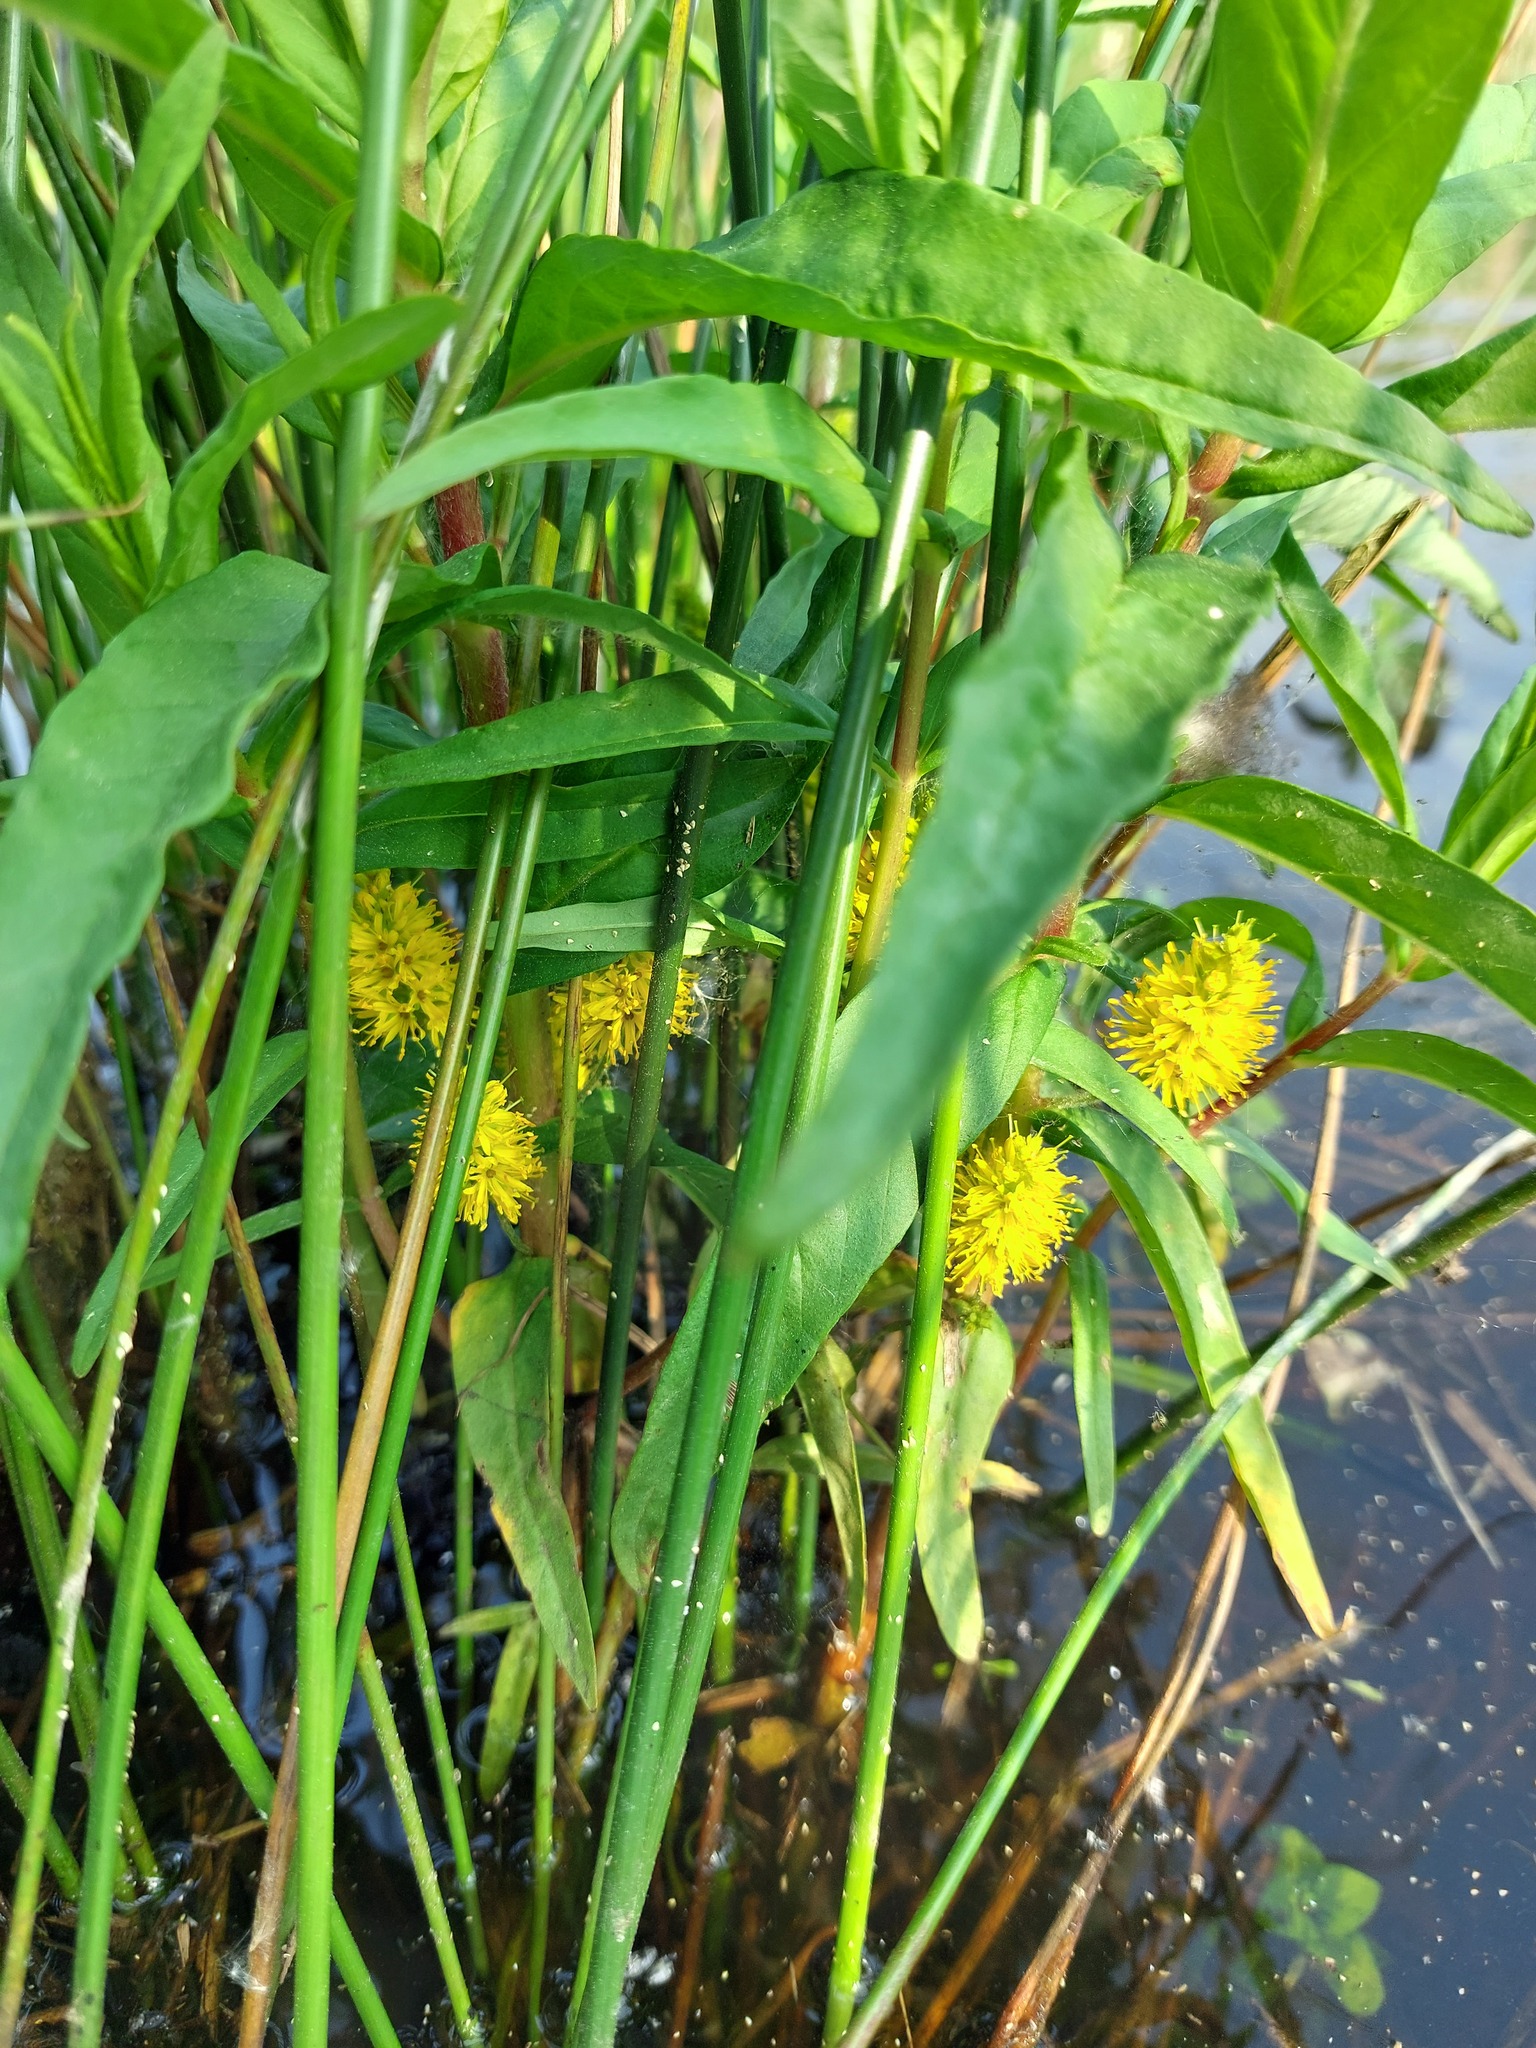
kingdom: Plantae
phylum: Tracheophyta
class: Magnoliopsida
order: Ericales
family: Primulaceae
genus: Lysimachia
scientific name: Lysimachia thyrsiflora
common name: Tufted loosestrife
